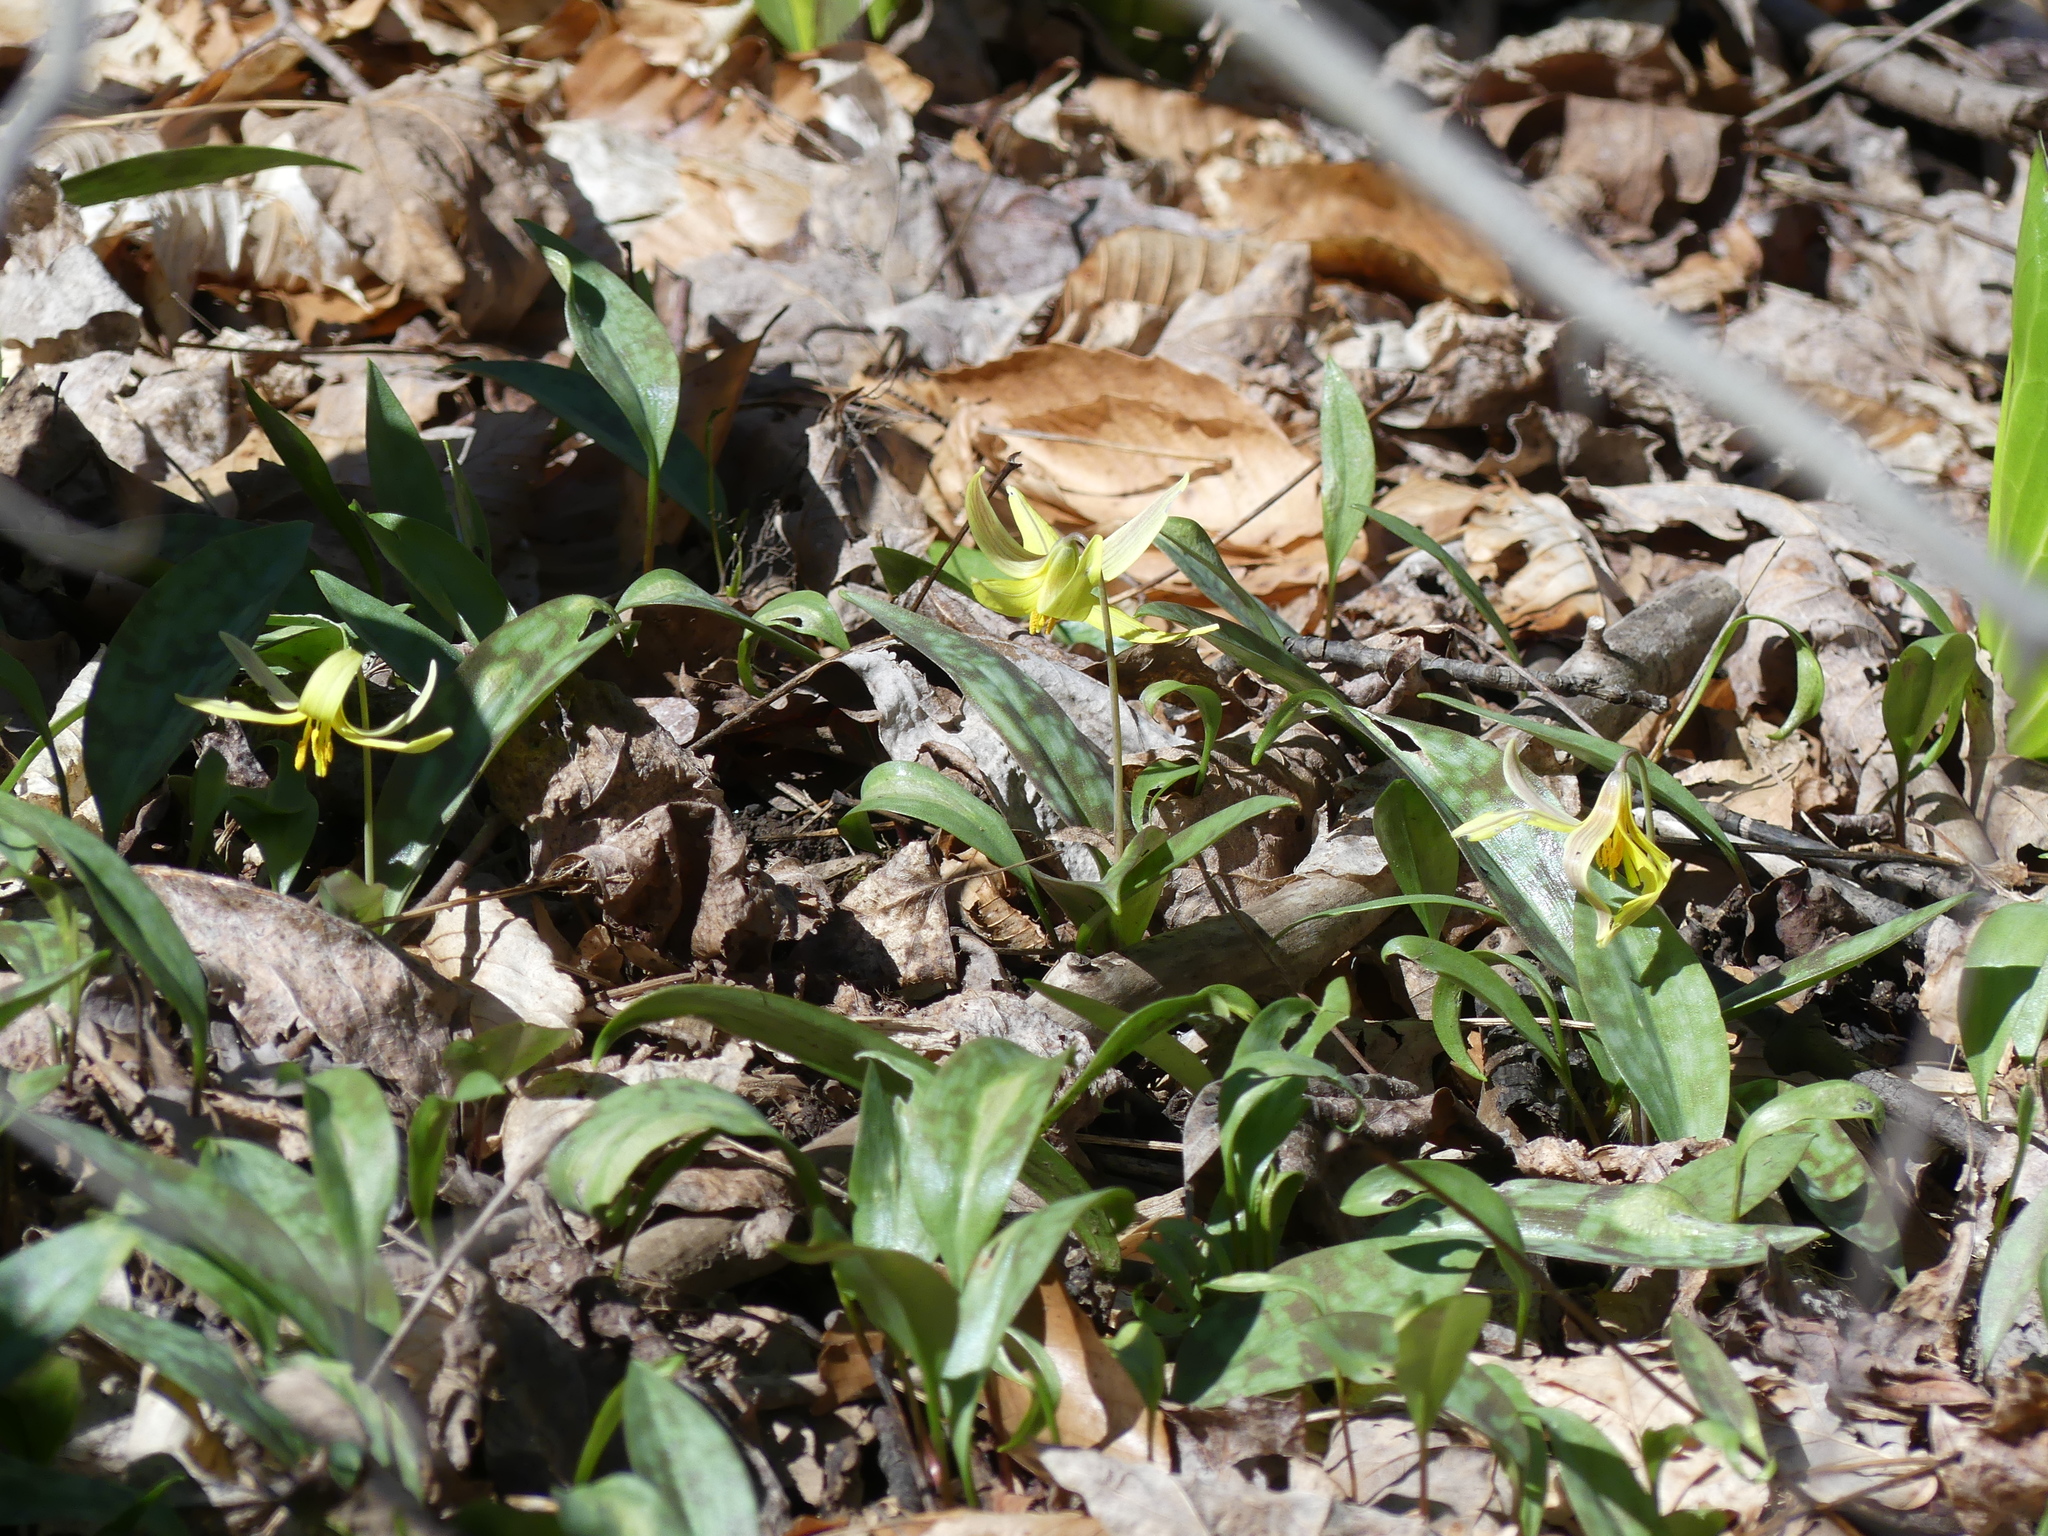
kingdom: Plantae
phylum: Tracheophyta
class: Liliopsida
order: Liliales
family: Liliaceae
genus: Erythronium
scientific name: Erythronium americanum
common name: Yellow adder's-tongue
